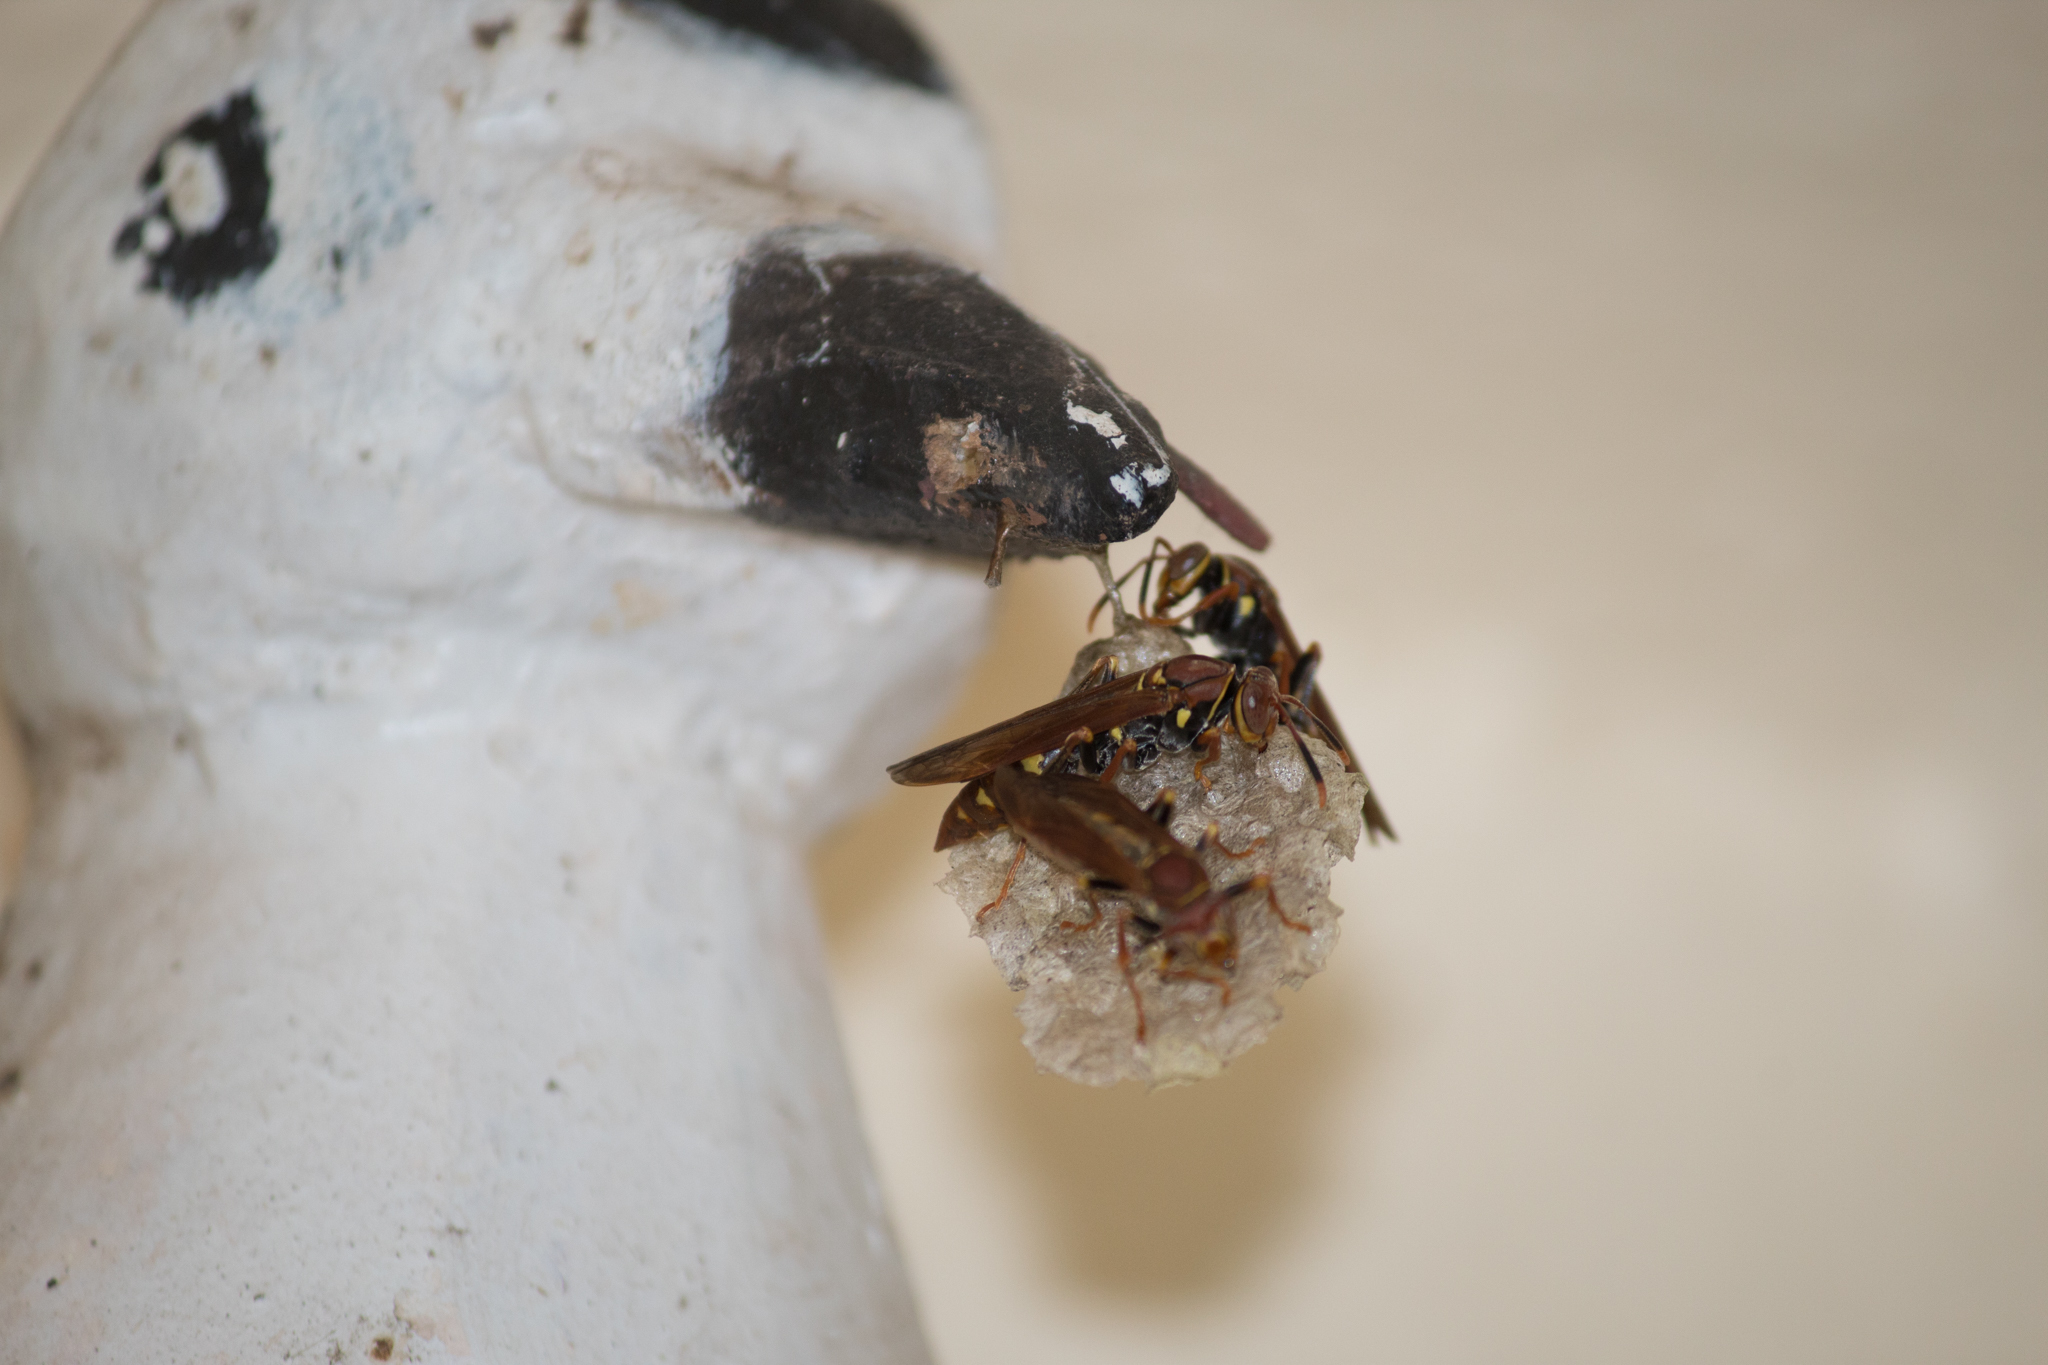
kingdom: Animalia
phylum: Arthropoda
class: Insecta
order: Hymenoptera
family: Eumenidae
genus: Polistes
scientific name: Polistes versicolor
